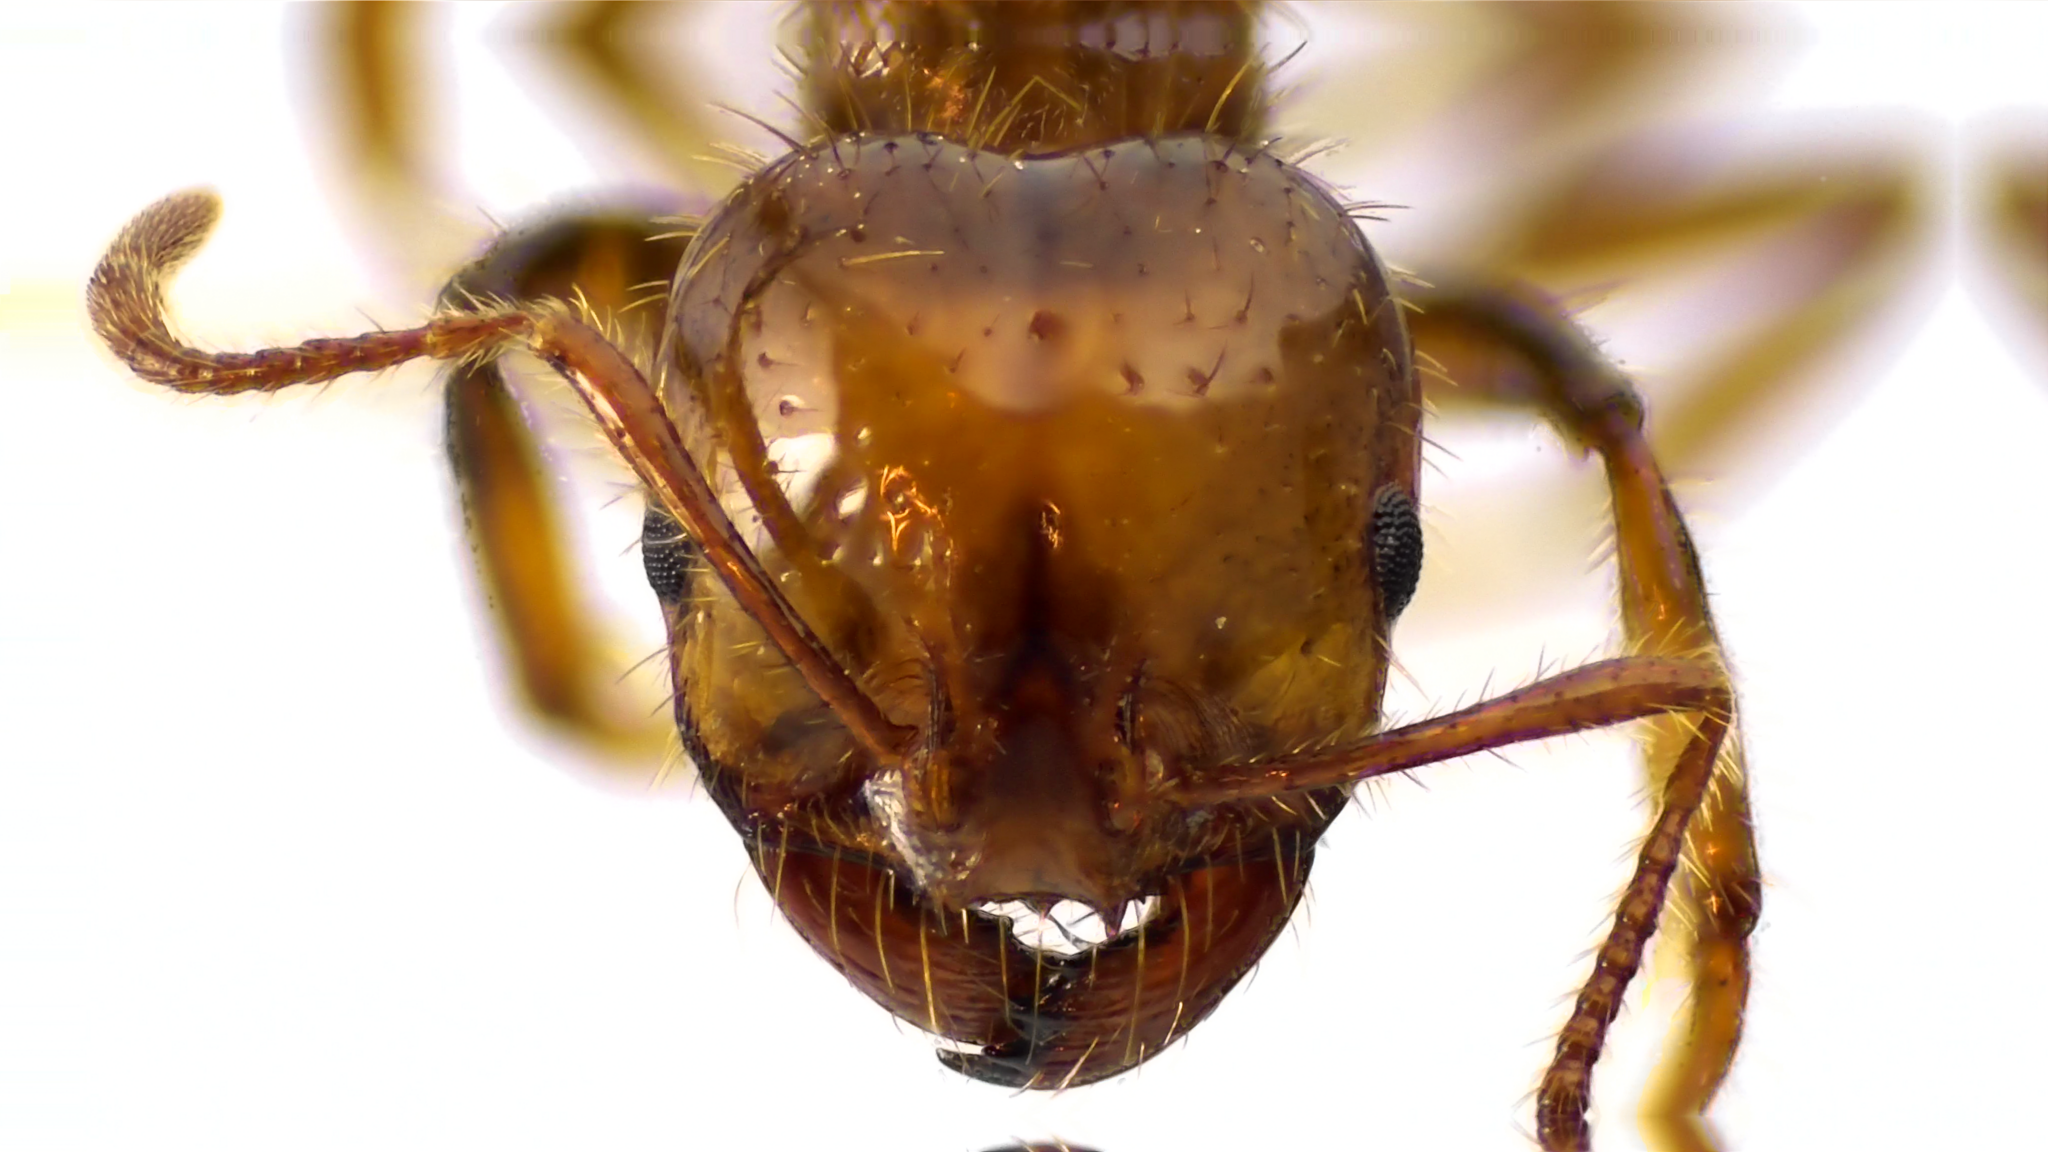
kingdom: Animalia
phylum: Arthropoda
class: Insecta
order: Hymenoptera
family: Formicidae
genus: Solenopsis
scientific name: Solenopsis invicta
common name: Red imported fire ant
